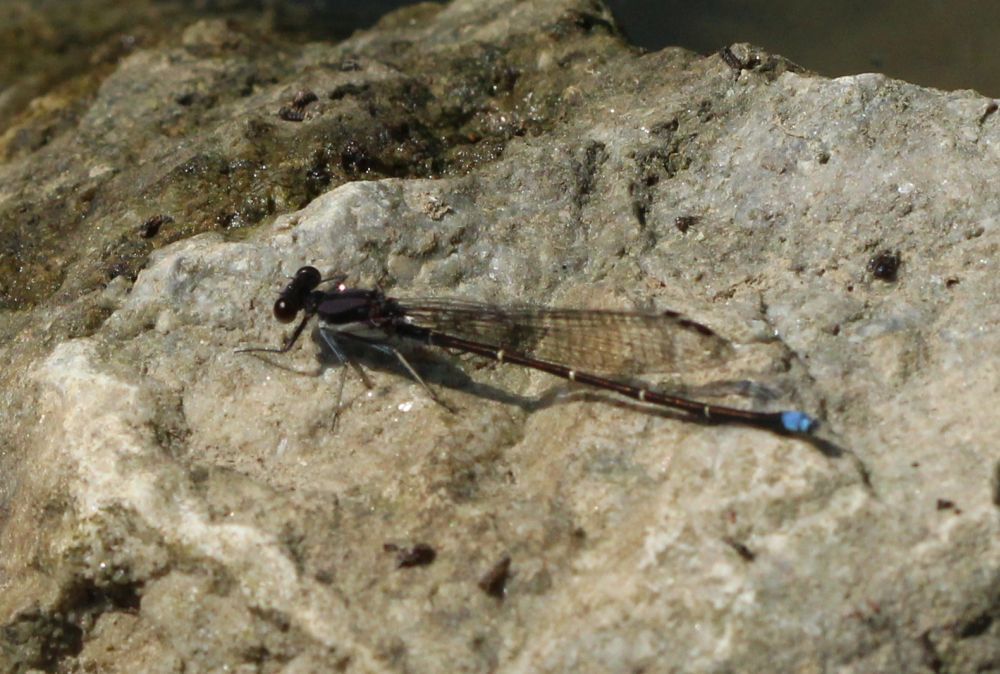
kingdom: Animalia
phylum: Arthropoda
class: Insecta
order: Odonata
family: Coenagrionidae
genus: Argia
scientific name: Argia tibialis
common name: Blue-tipped dancer
